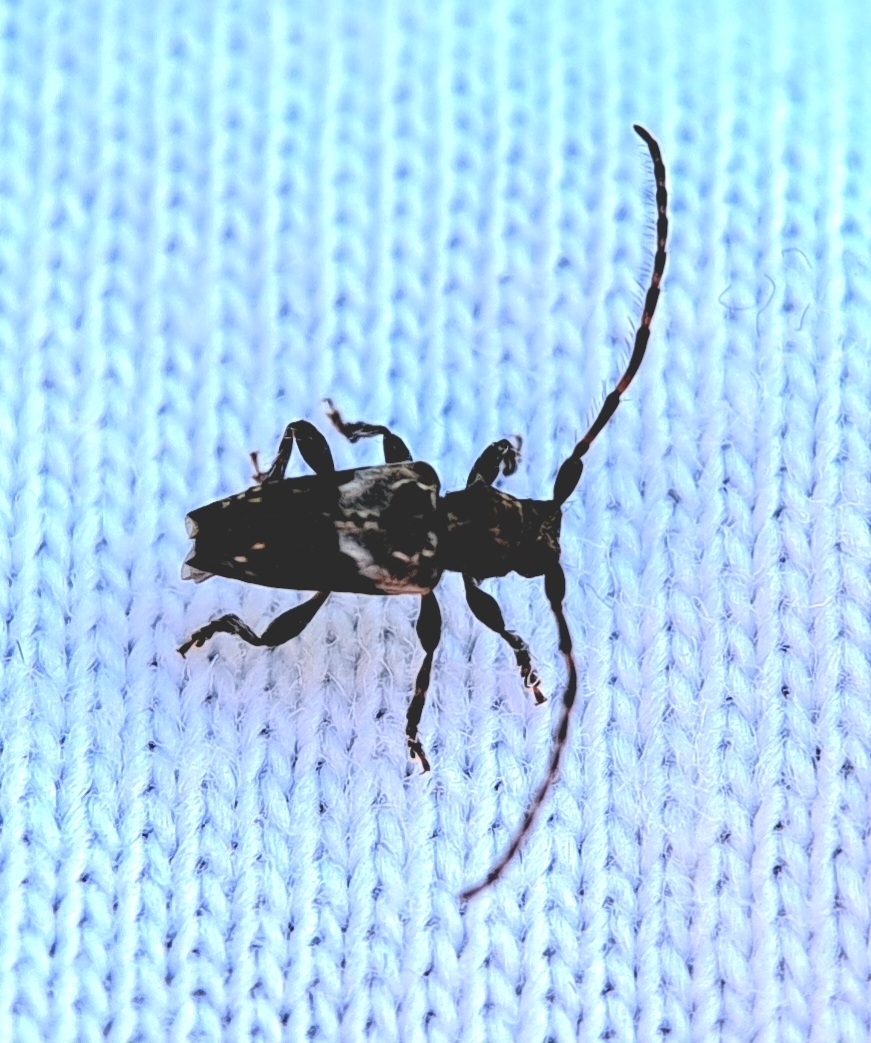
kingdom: Animalia
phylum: Arthropoda
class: Insecta
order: Coleoptera
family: Cerambycidae
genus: Pogonocherus
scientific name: Pogonocherus hispidus
